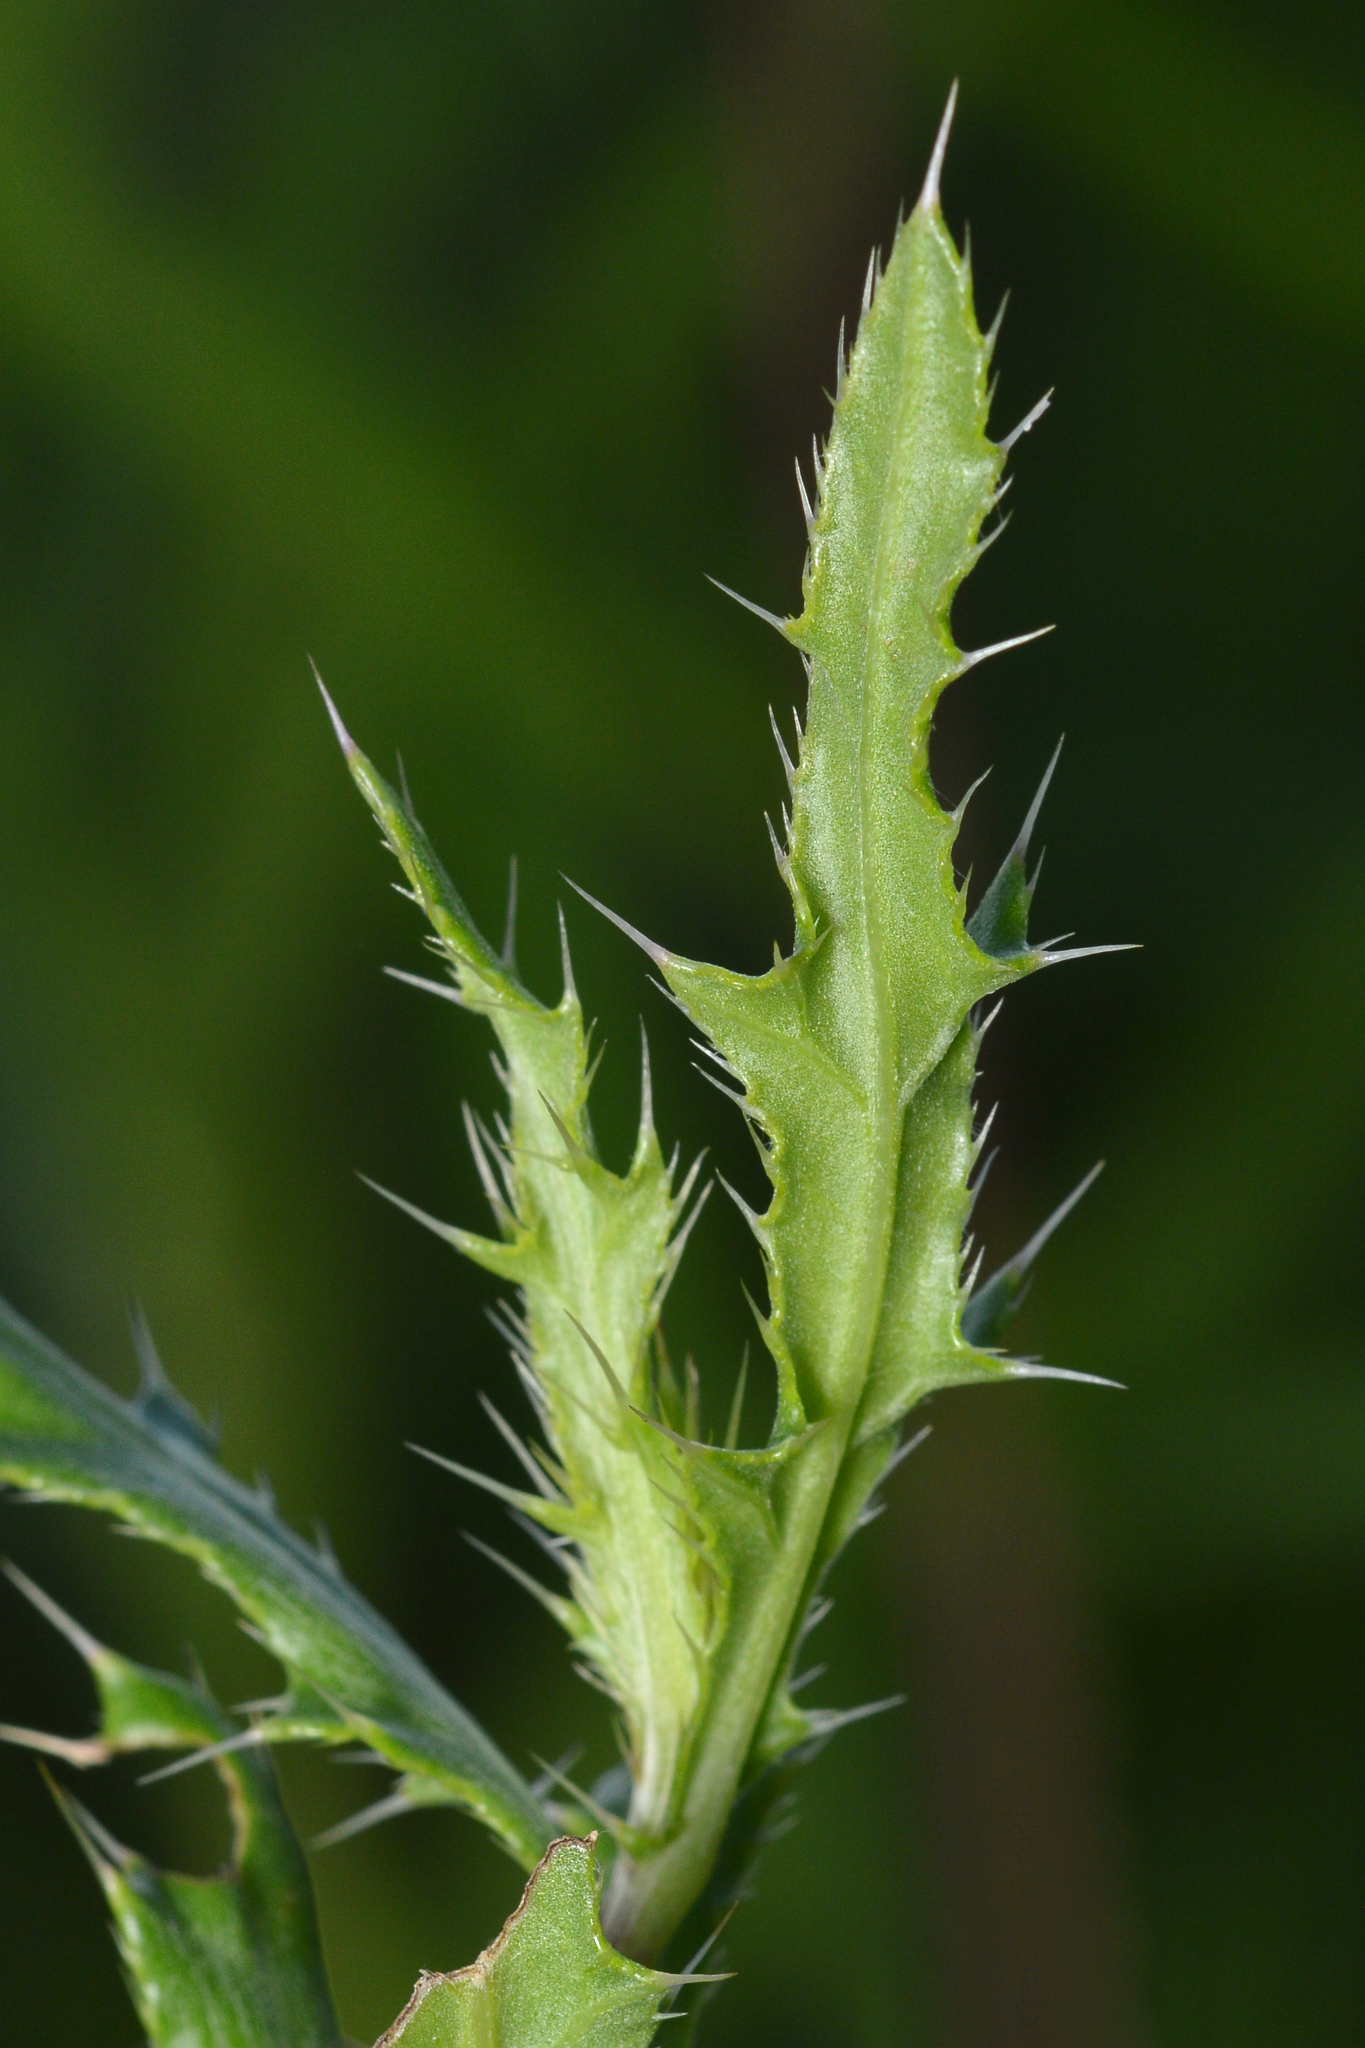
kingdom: Plantae
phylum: Tracheophyta
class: Magnoliopsida
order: Asterales
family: Asteraceae
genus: Cirsium
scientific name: Cirsium arvense
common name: Creeping thistle
